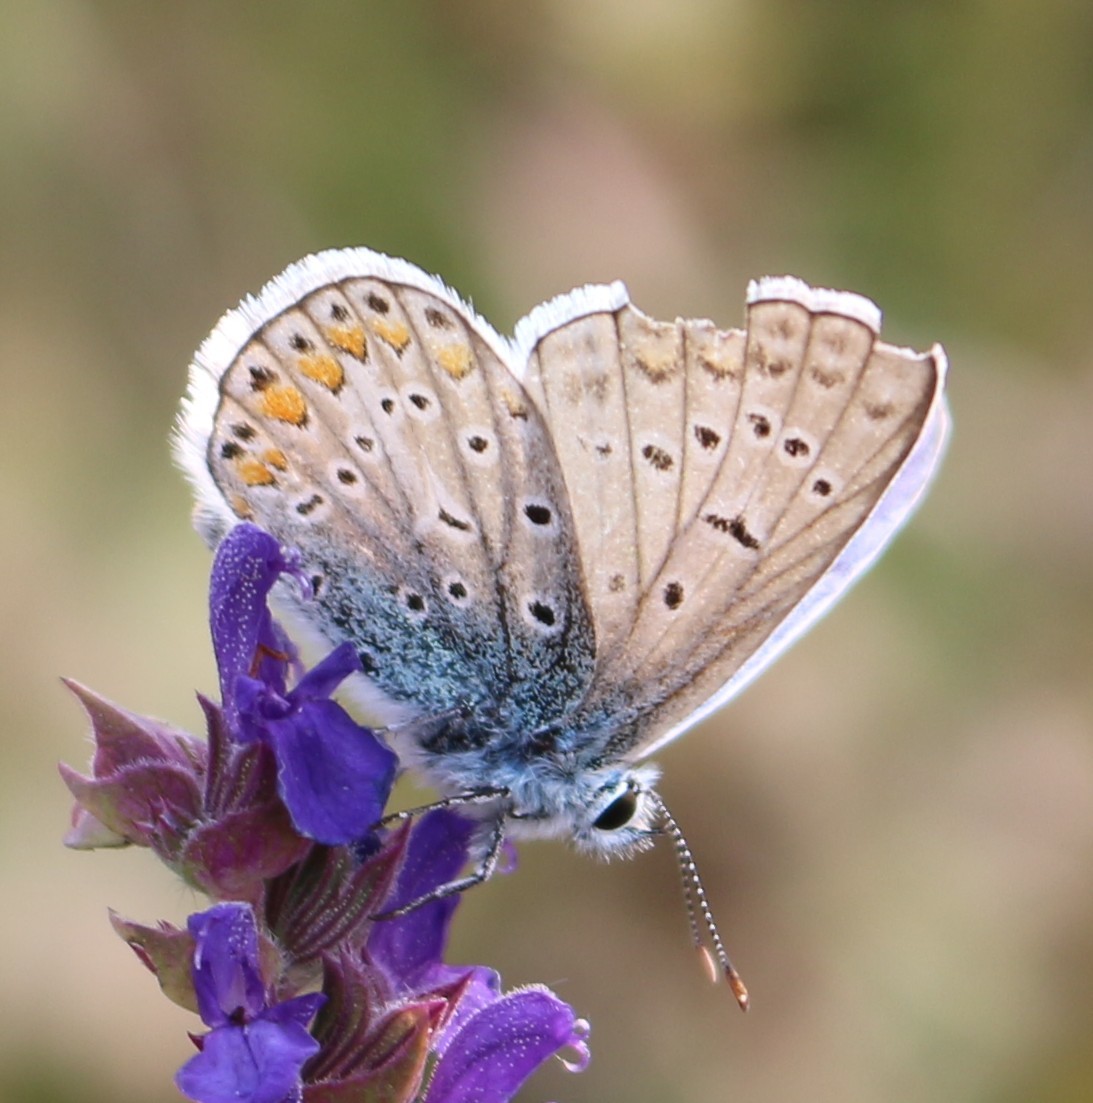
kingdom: Animalia
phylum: Arthropoda
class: Insecta
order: Lepidoptera
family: Lycaenidae
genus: Polyommatus
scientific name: Polyommatus icarus
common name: Common blue
